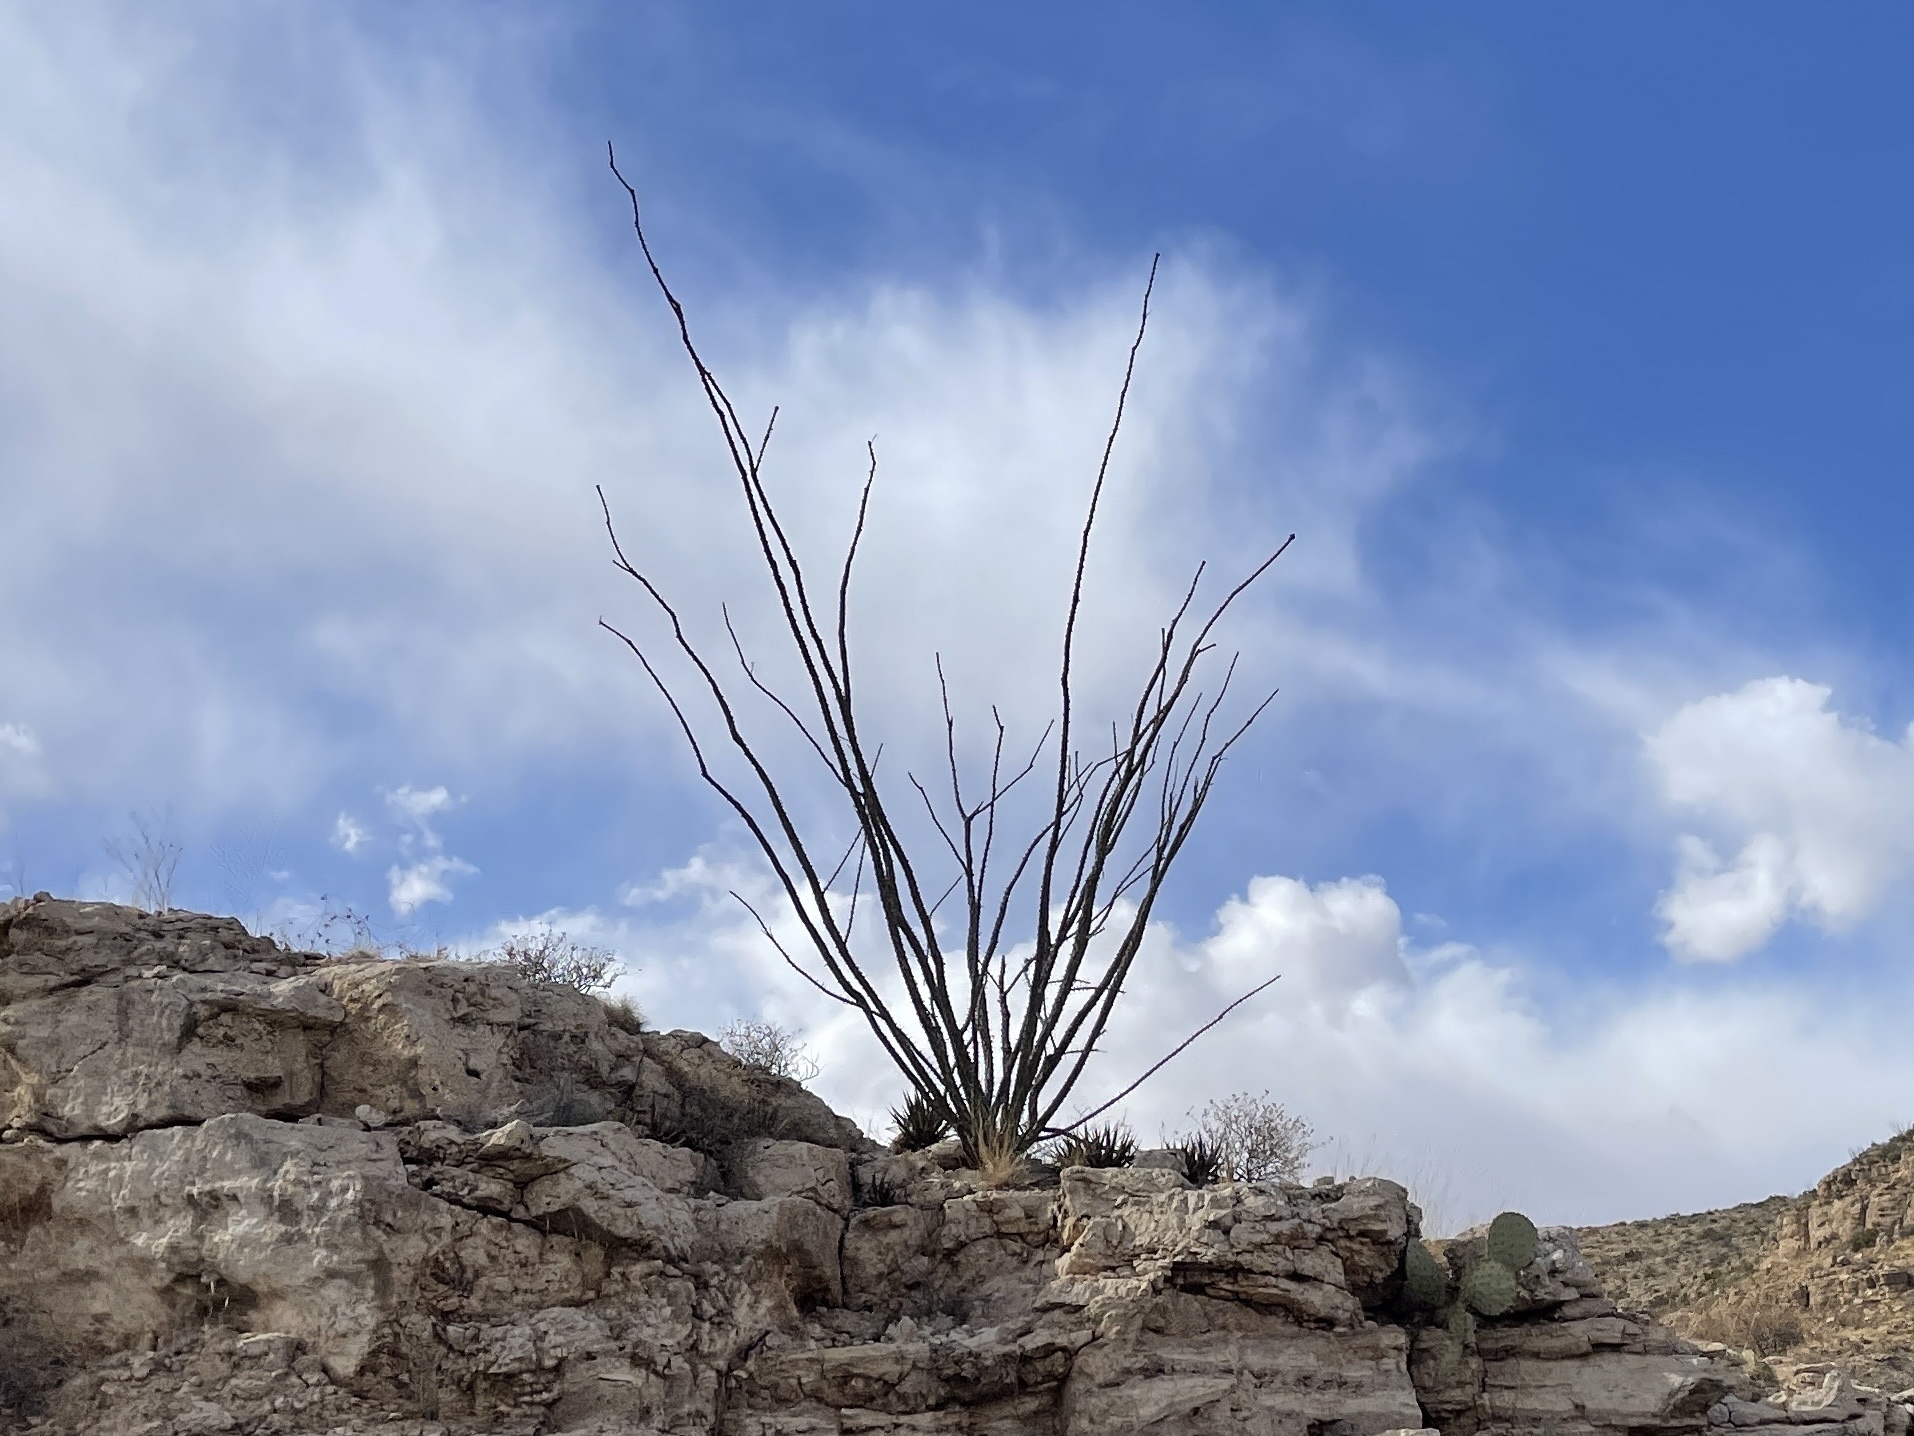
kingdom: Plantae
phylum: Tracheophyta
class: Magnoliopsida
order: Ericales
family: Fouquieriaceae
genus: Fouquieria
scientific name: Fouquieria splendens
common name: Vine-cactus
